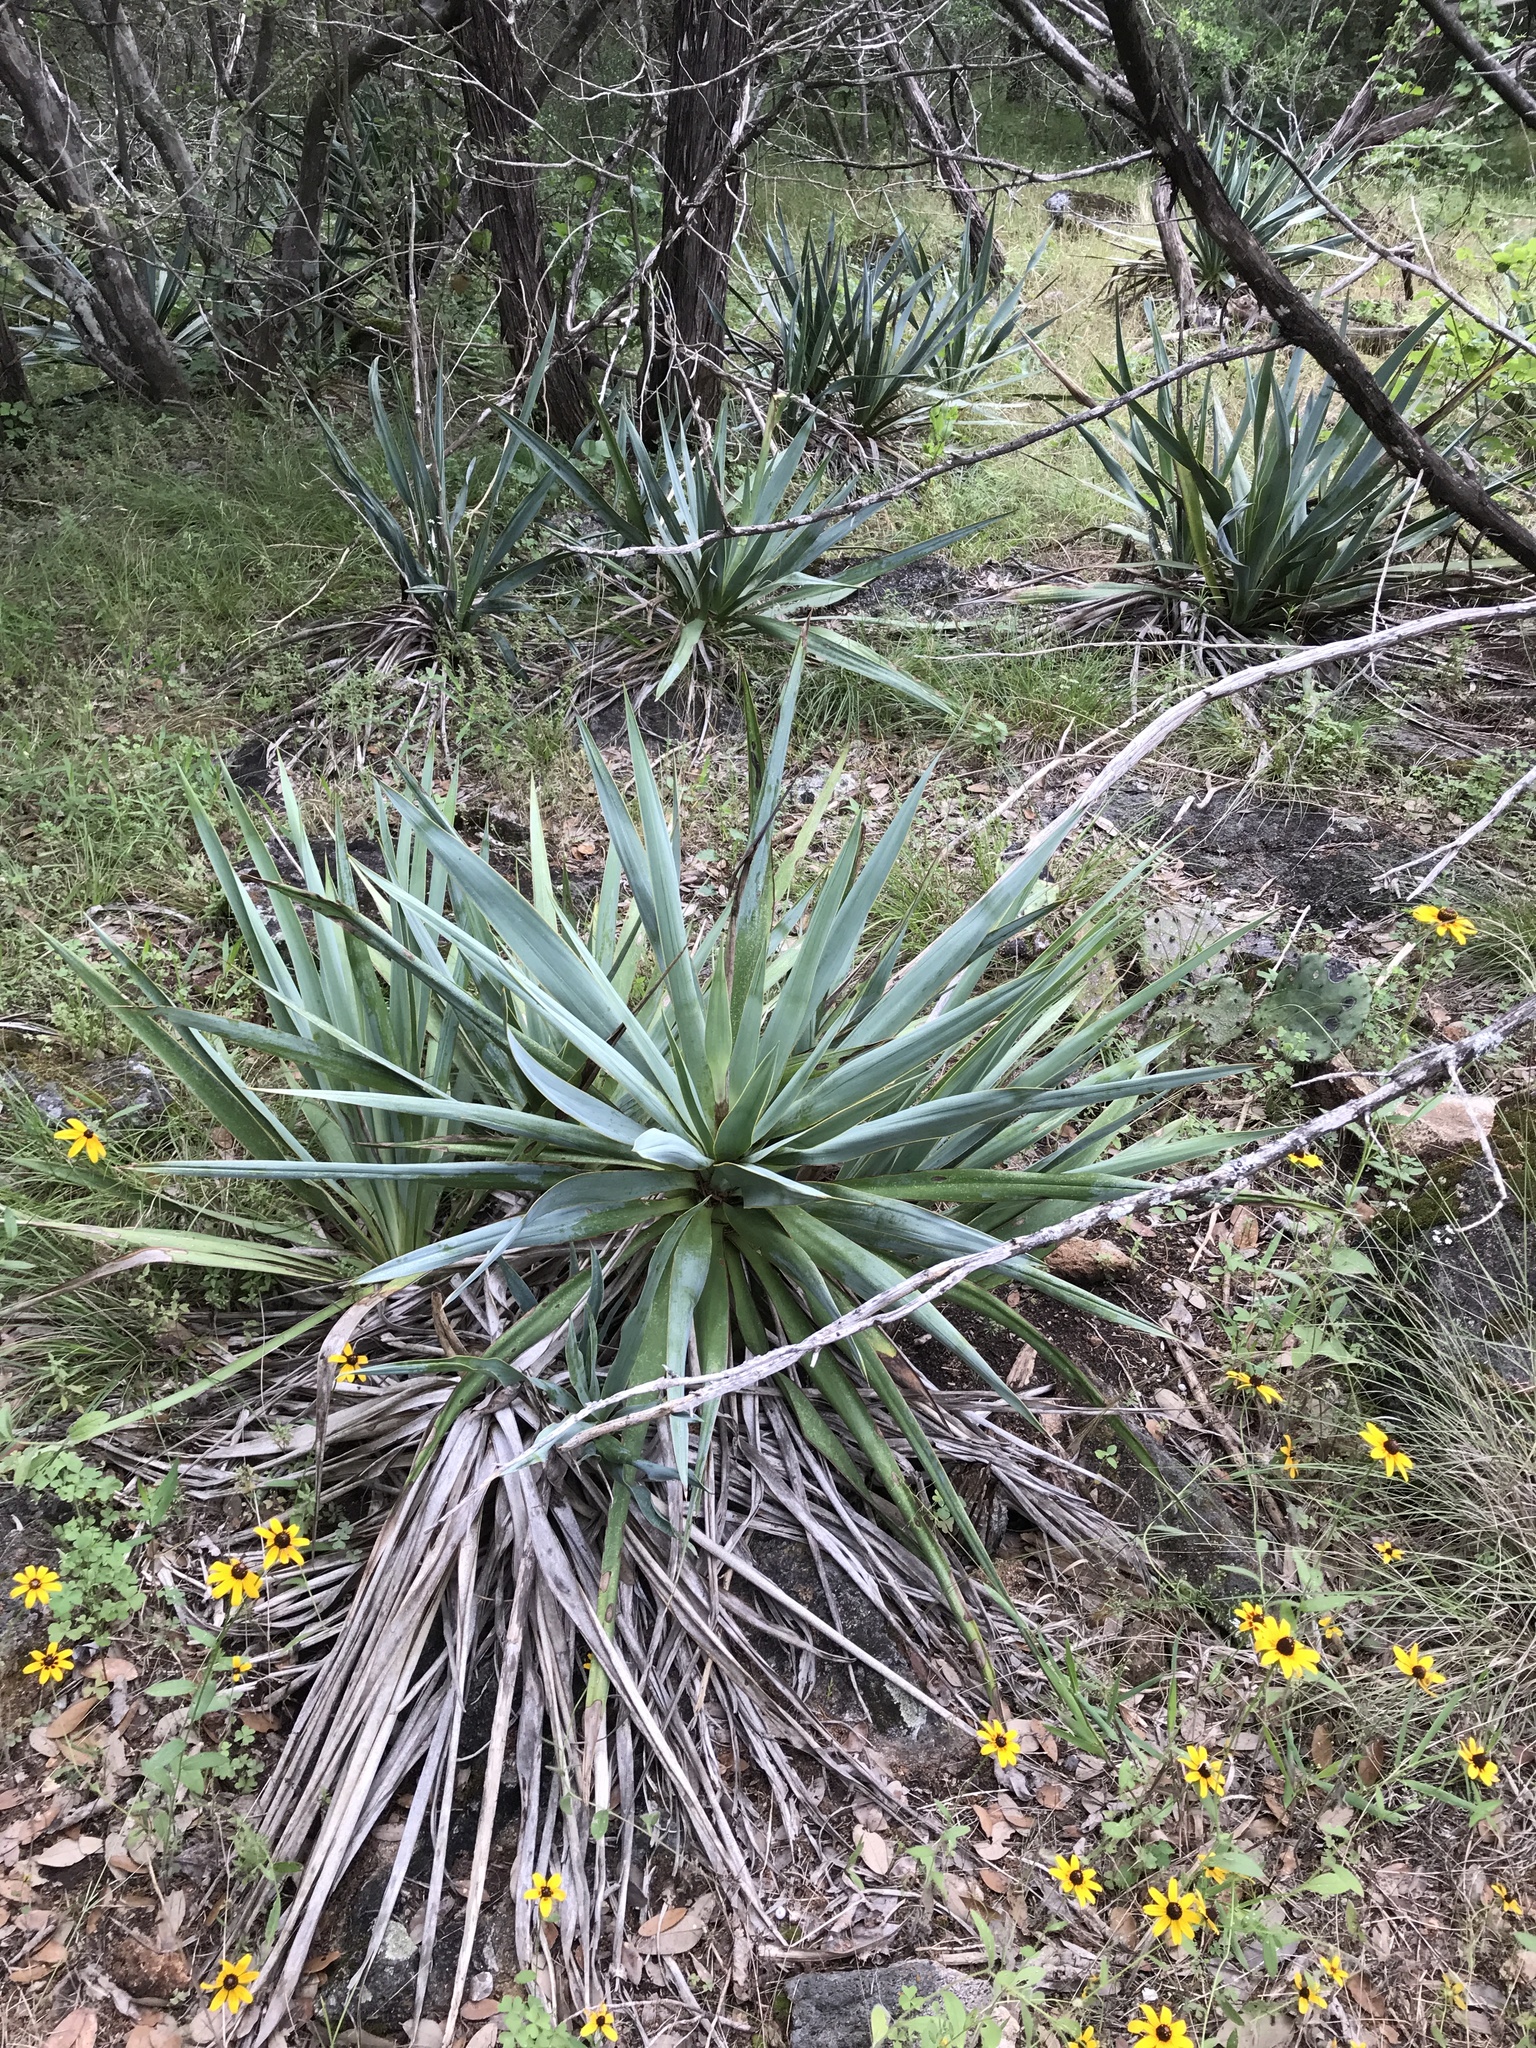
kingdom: Plantae
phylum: Tracheophyta
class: Liliopsida
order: Asparagales
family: Asparagaceae
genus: Yucca
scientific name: Yucca pallida
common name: Pale leaf yucca
